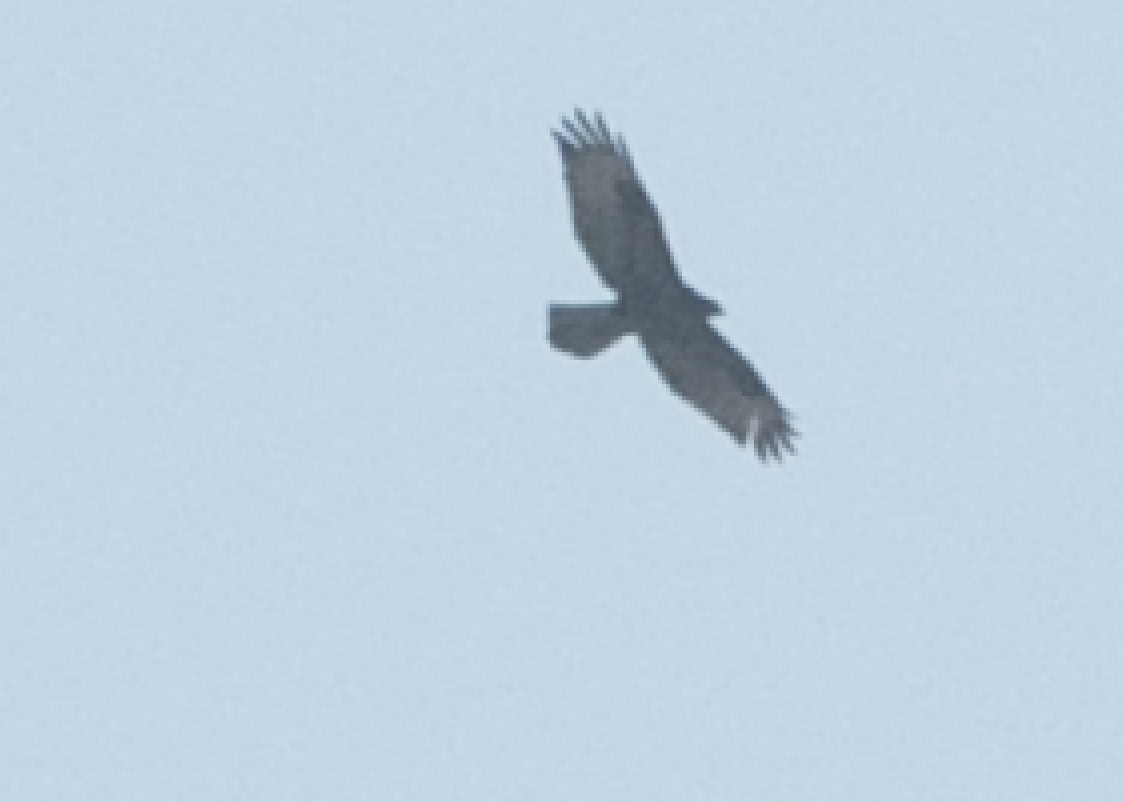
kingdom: Animalia
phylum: Chordata
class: Aves
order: Accipitriformes
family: Accipitridae
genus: Buteo
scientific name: Buteo buteo
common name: Common buzzard
